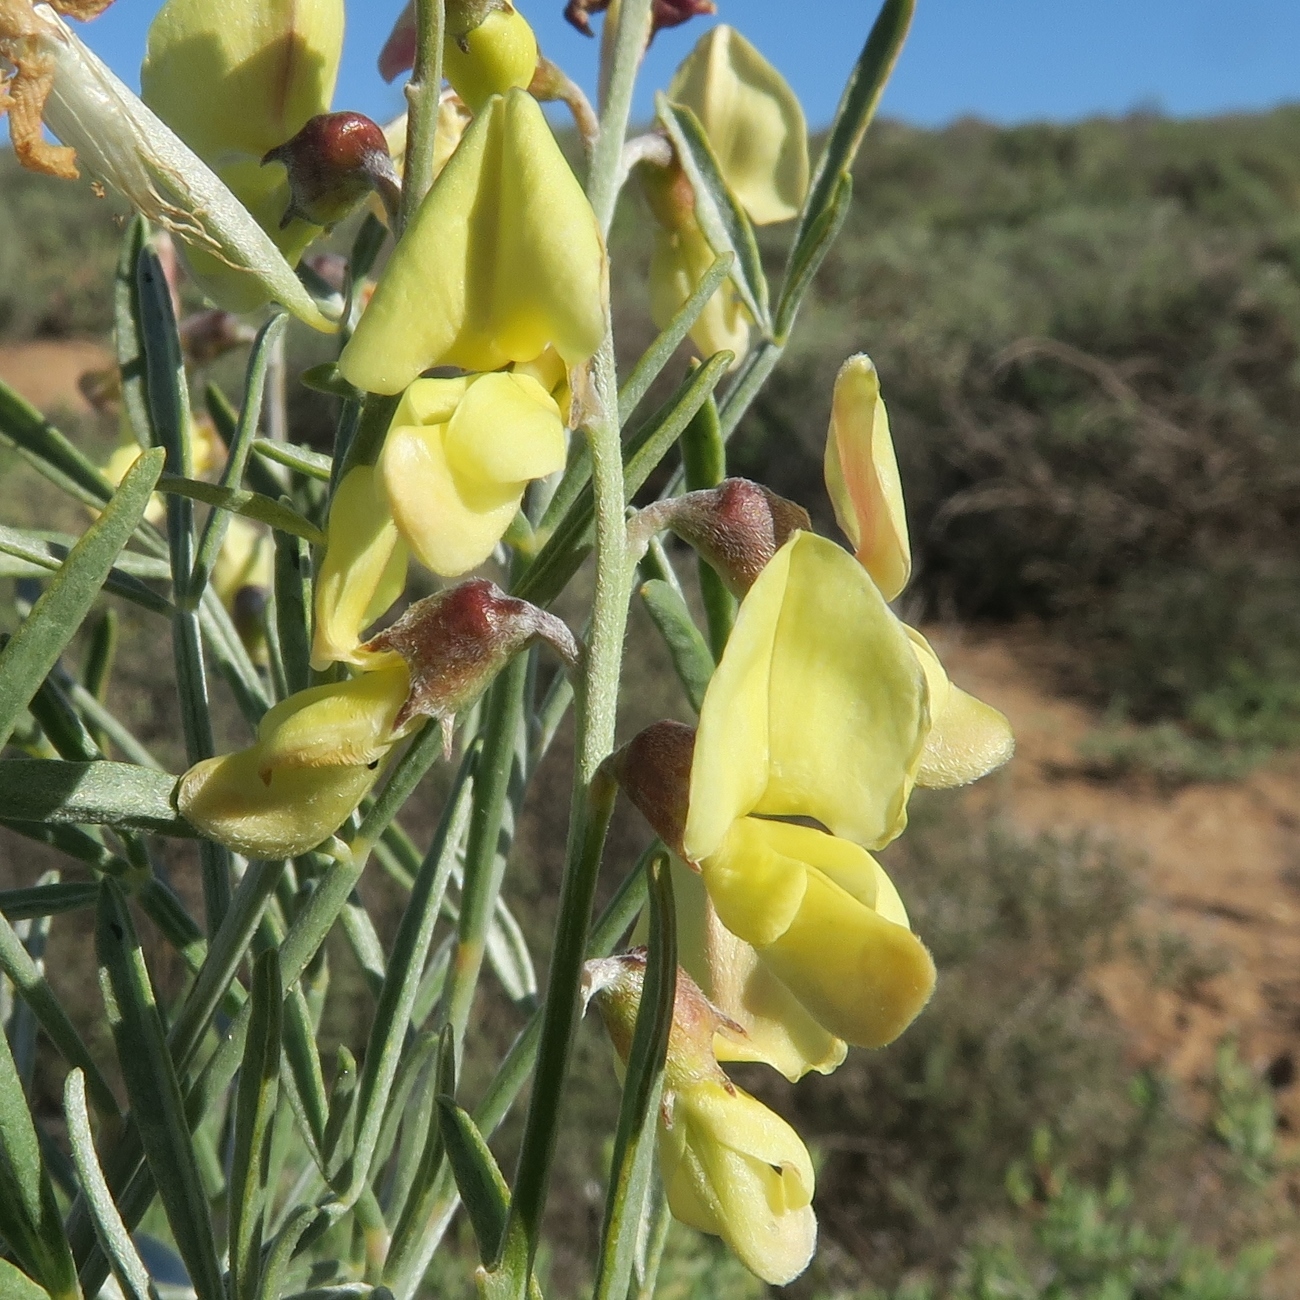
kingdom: Plantae
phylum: Tracheophyta
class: Magnoliopsida
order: Fabales
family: Fabaceae
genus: Calobota
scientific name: Calobota sericea
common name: Silver-pea
